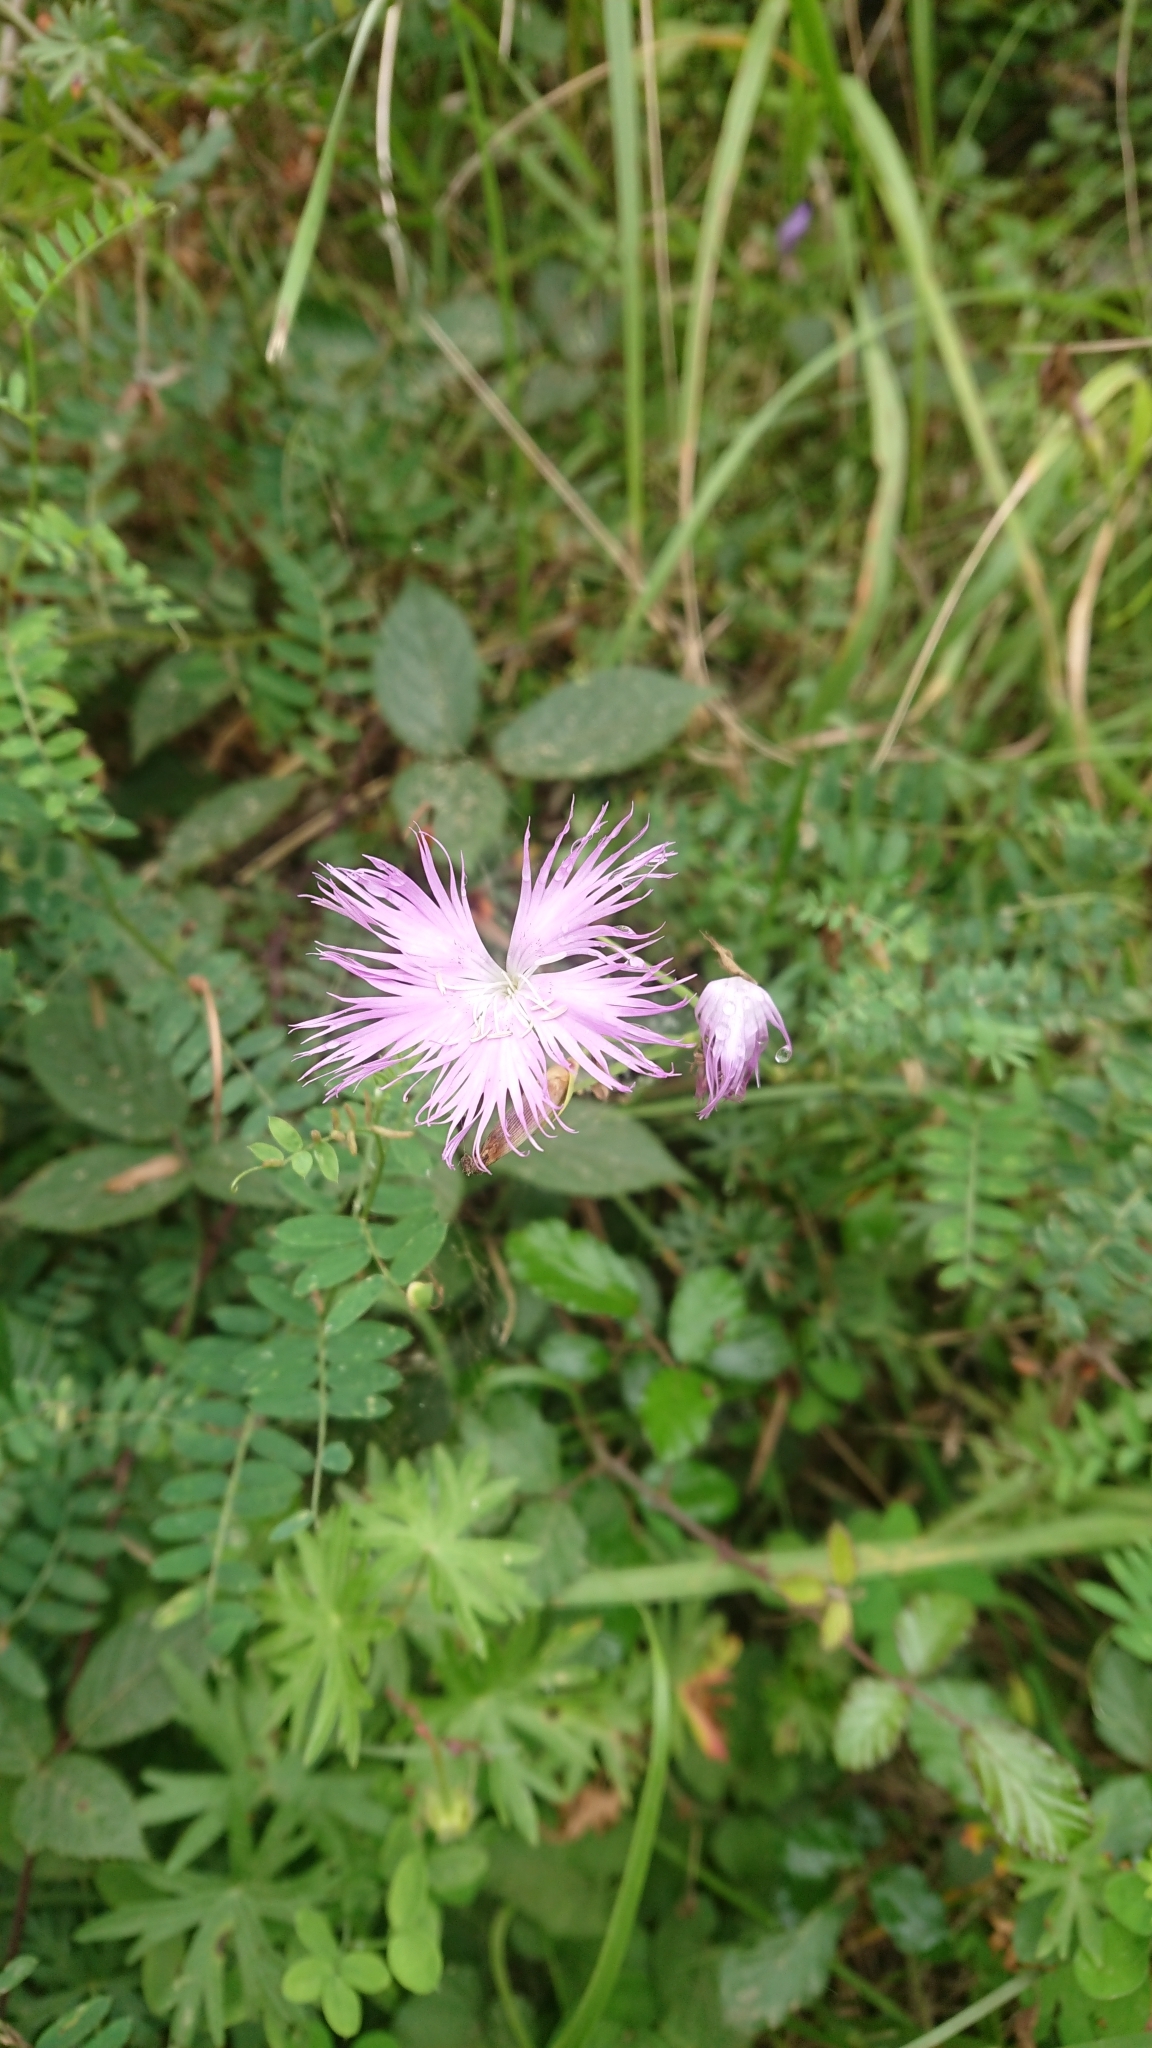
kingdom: Plantae
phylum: Tracheophyta
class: Magnoliopsida
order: Caryophyllales
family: Caryophyllaceae
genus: Dianthus
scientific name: Dianthus hyssopifolius
